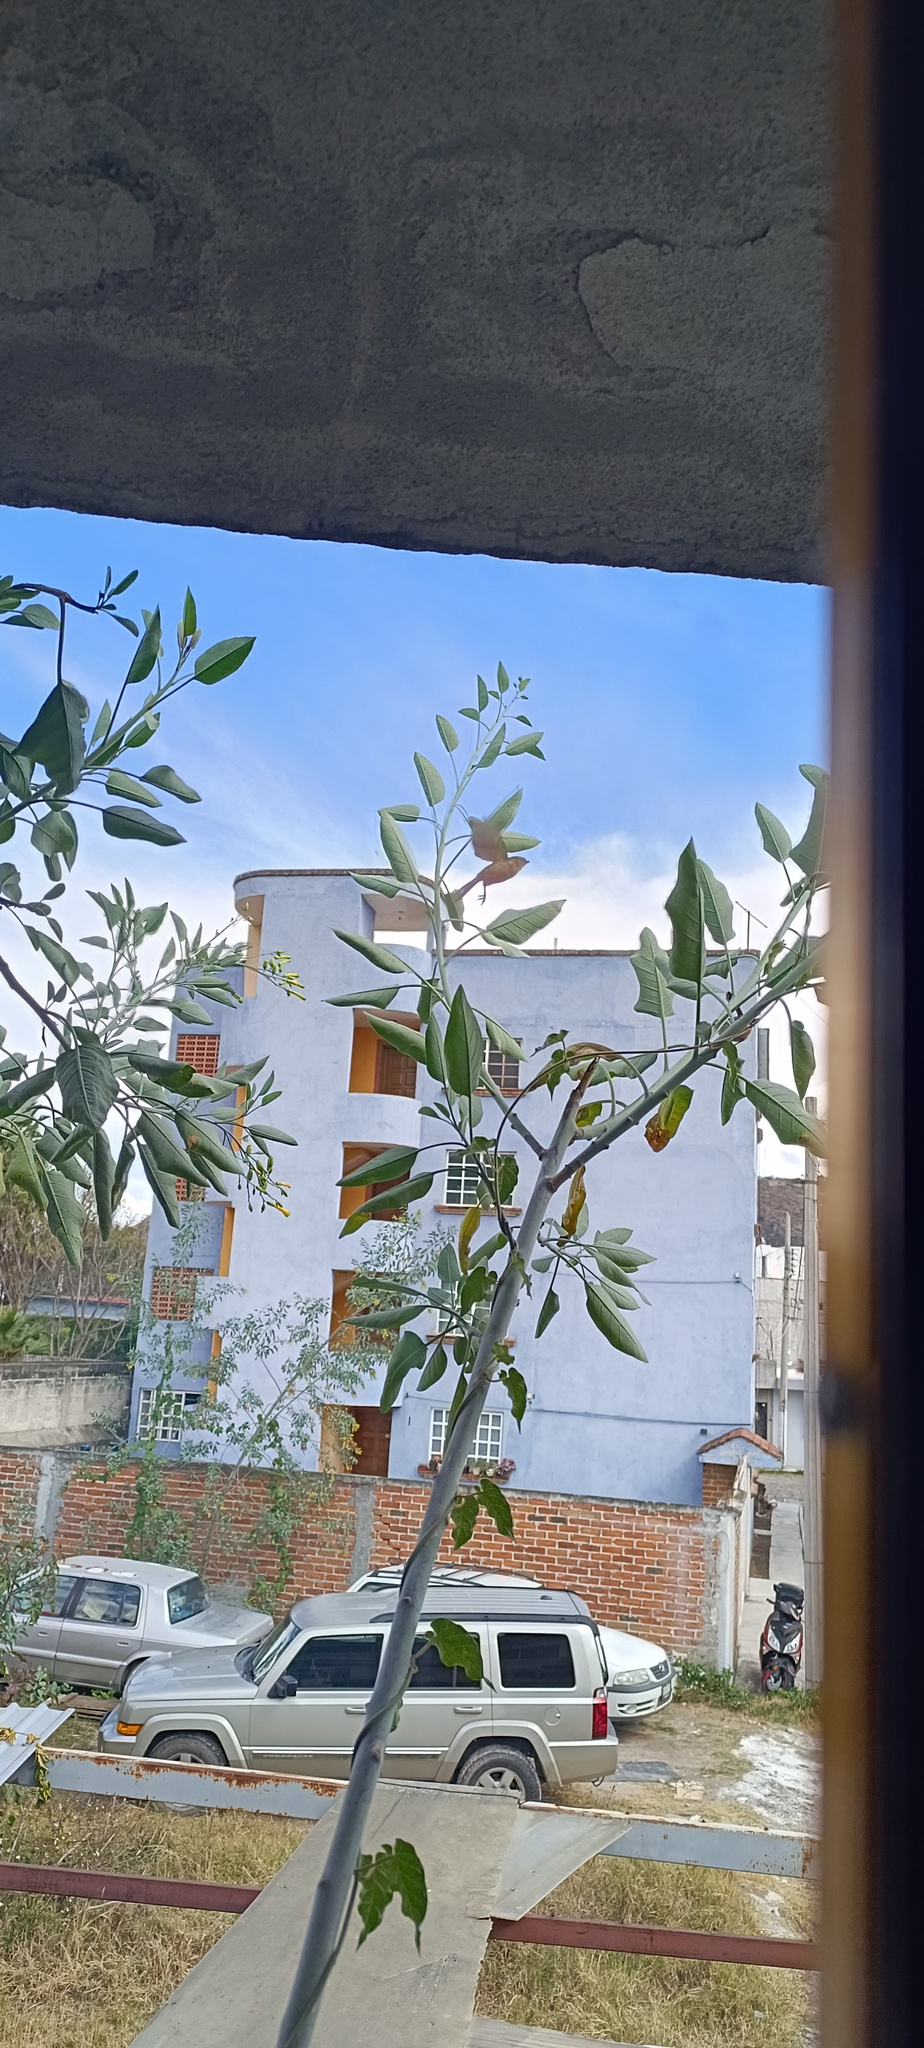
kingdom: Animalia
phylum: Chordata
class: Aves
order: Passeriformes
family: Aegithalidae
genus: Psaltriparus
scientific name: Psaltriparus minimus
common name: American bushtit
